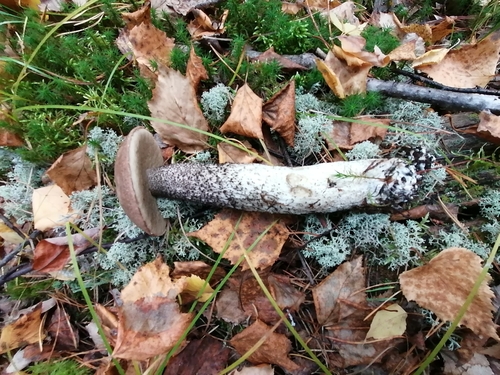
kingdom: Fungi
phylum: Basidiomycota
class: Agaricomycetes
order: Boletales
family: Boletaceae
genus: Leccinum
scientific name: Leccinum
